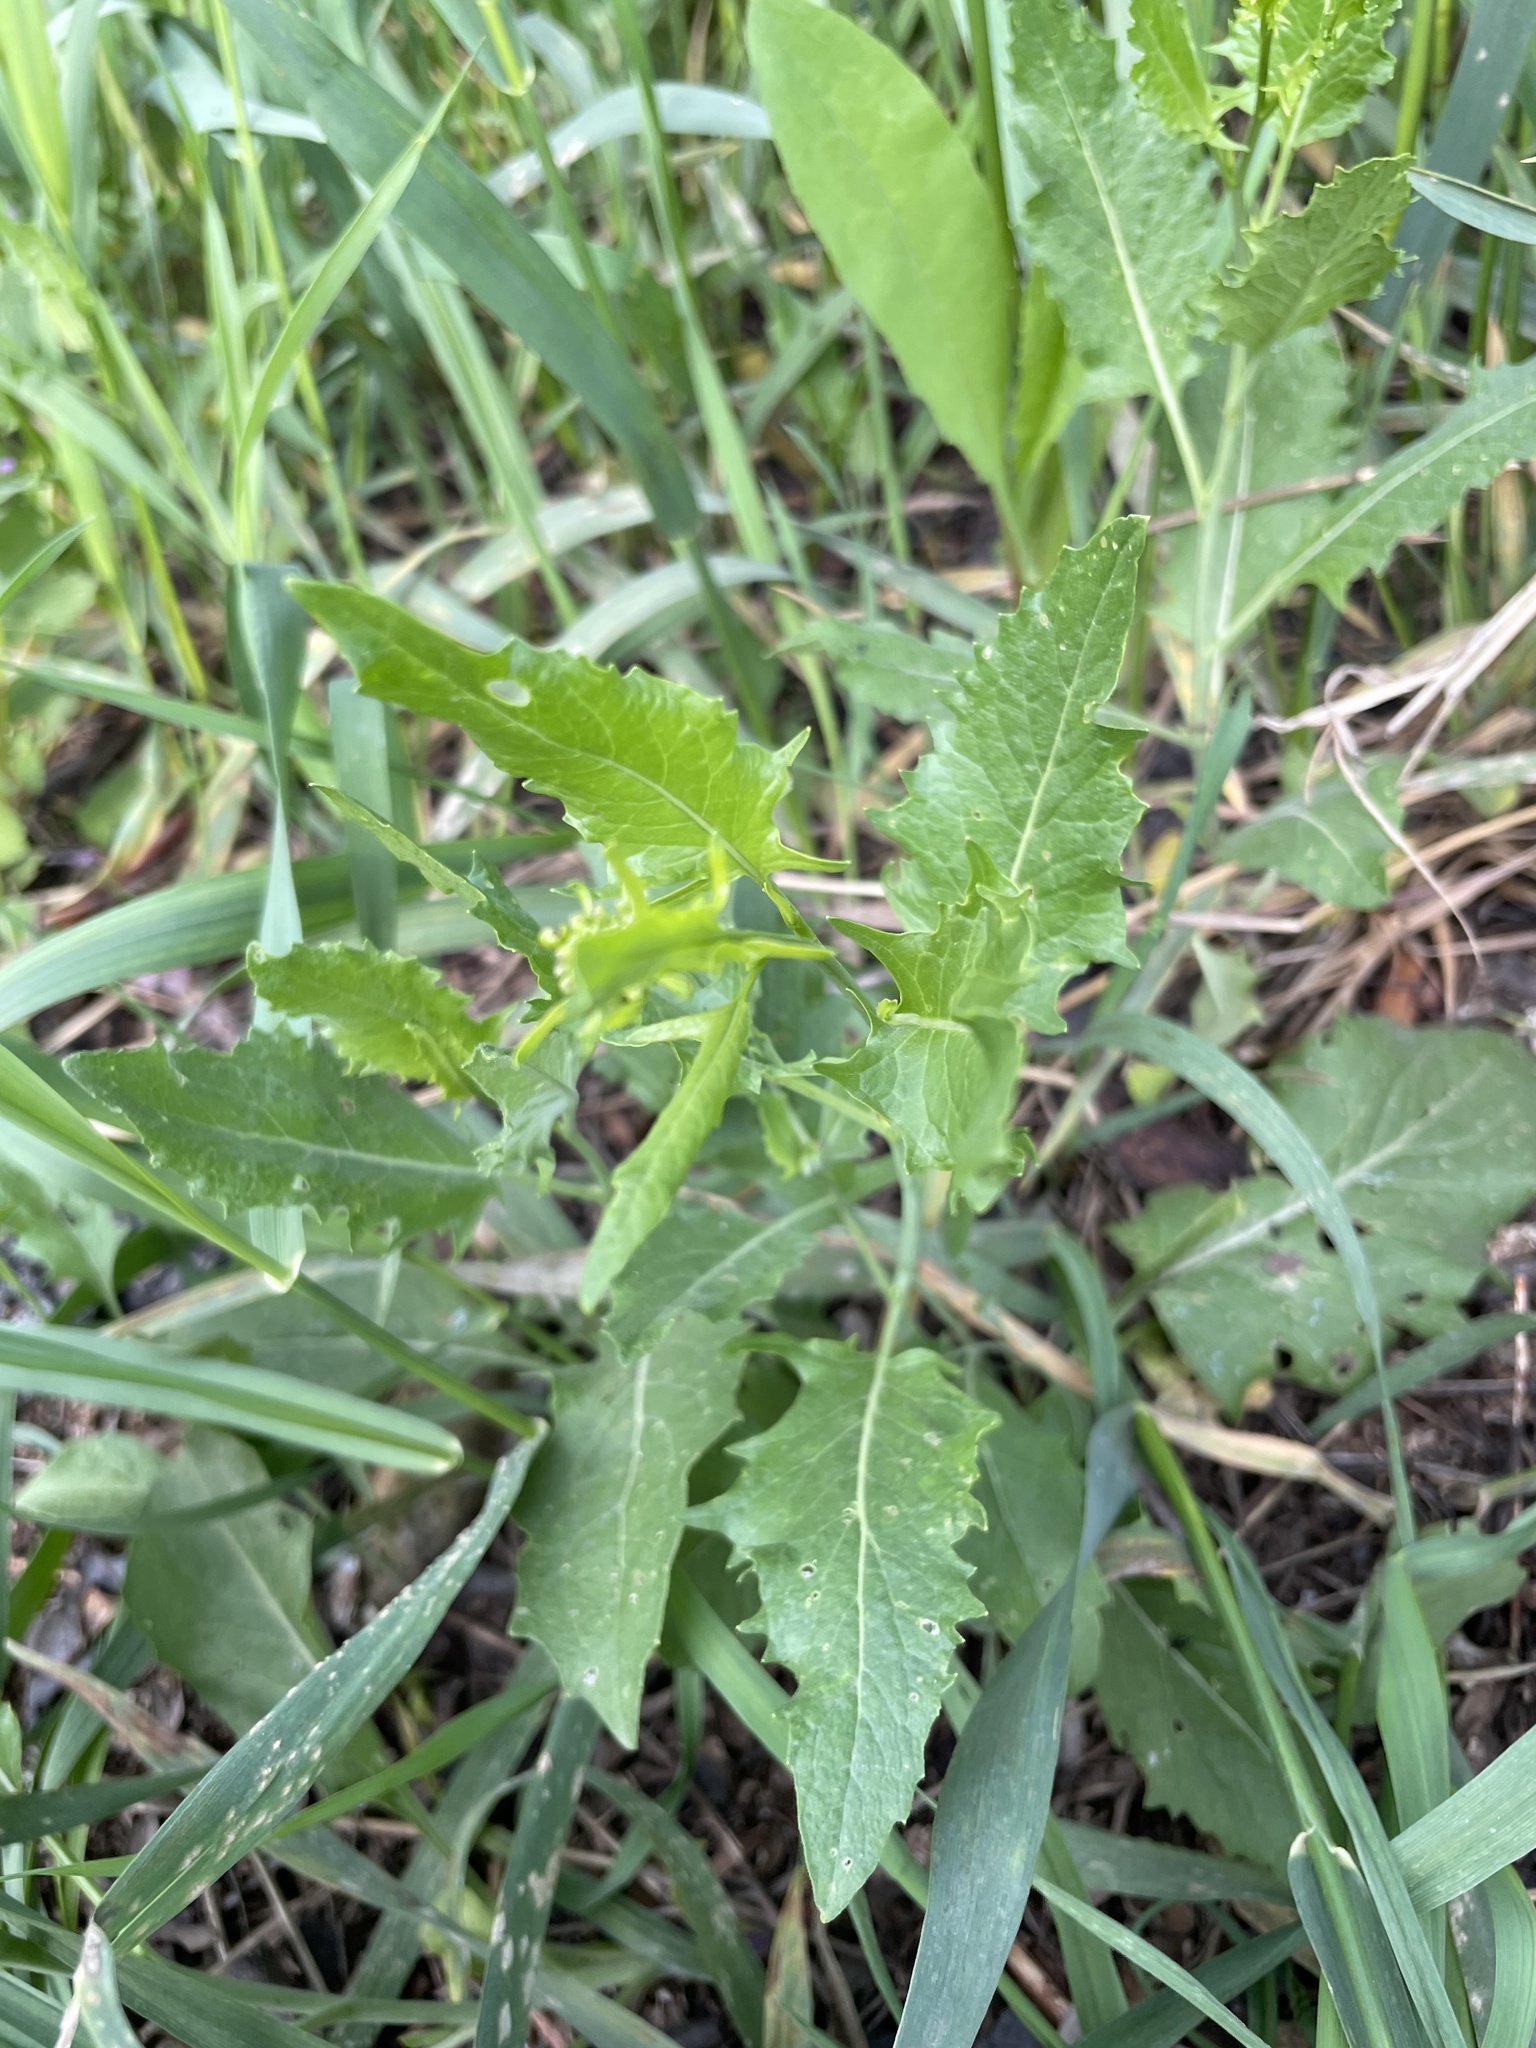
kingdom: Plantae
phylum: Tracheophyta
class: Magnoliopsida
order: Brassicales
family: Brassicaceae
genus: Sisymbrium
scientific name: Sisymbrium volgense
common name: Russian mustard
